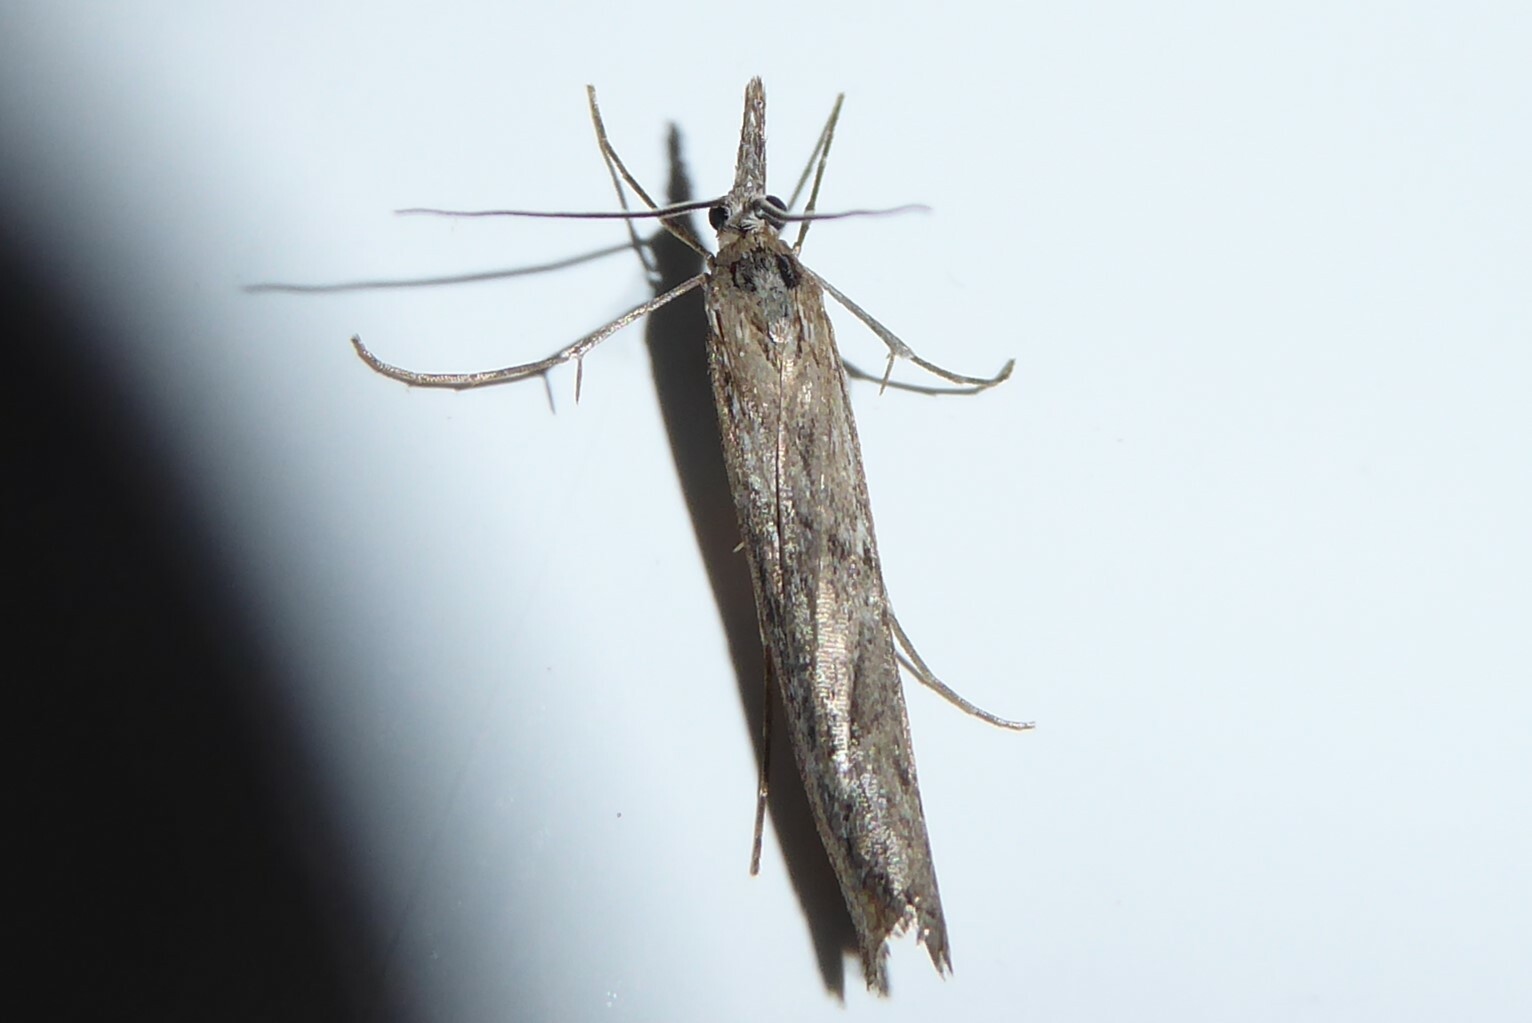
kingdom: Animalia
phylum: Arthropoda
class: Insecta
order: Lepidoptera
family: Crambidae
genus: Orocrambus
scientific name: Orocrambus cyclopicus
